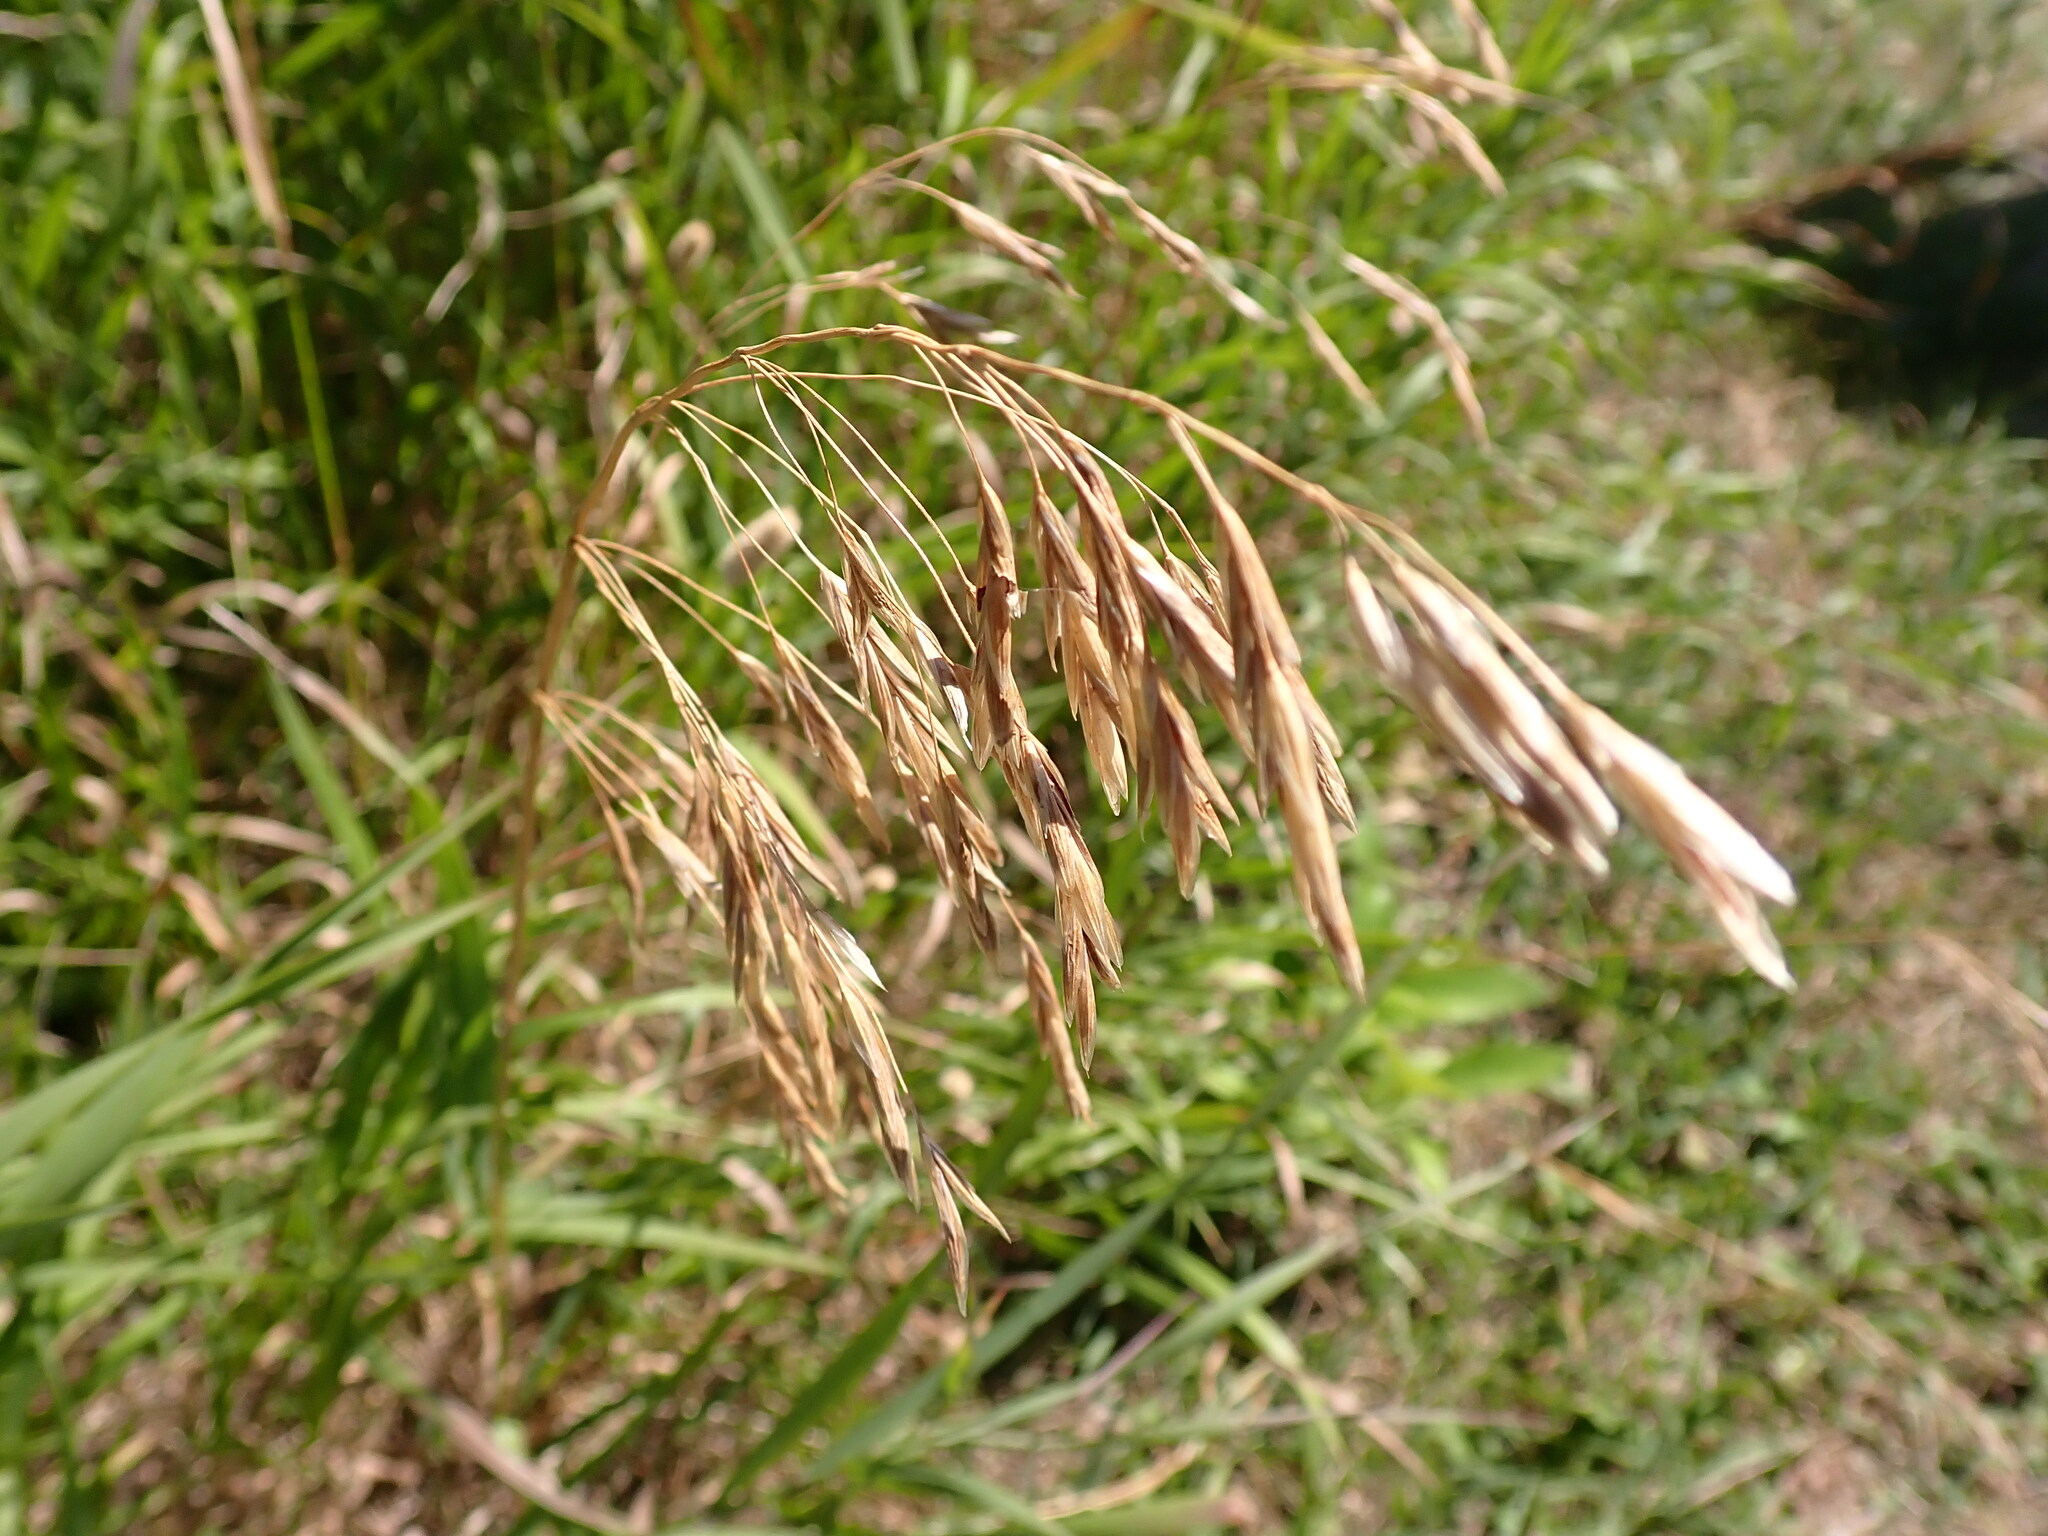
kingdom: Plantae
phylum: Tracheophyta
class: Liliopsida
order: Poales
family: Poaceae
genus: Bromus
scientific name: Bromus inermis
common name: Smooth brome
